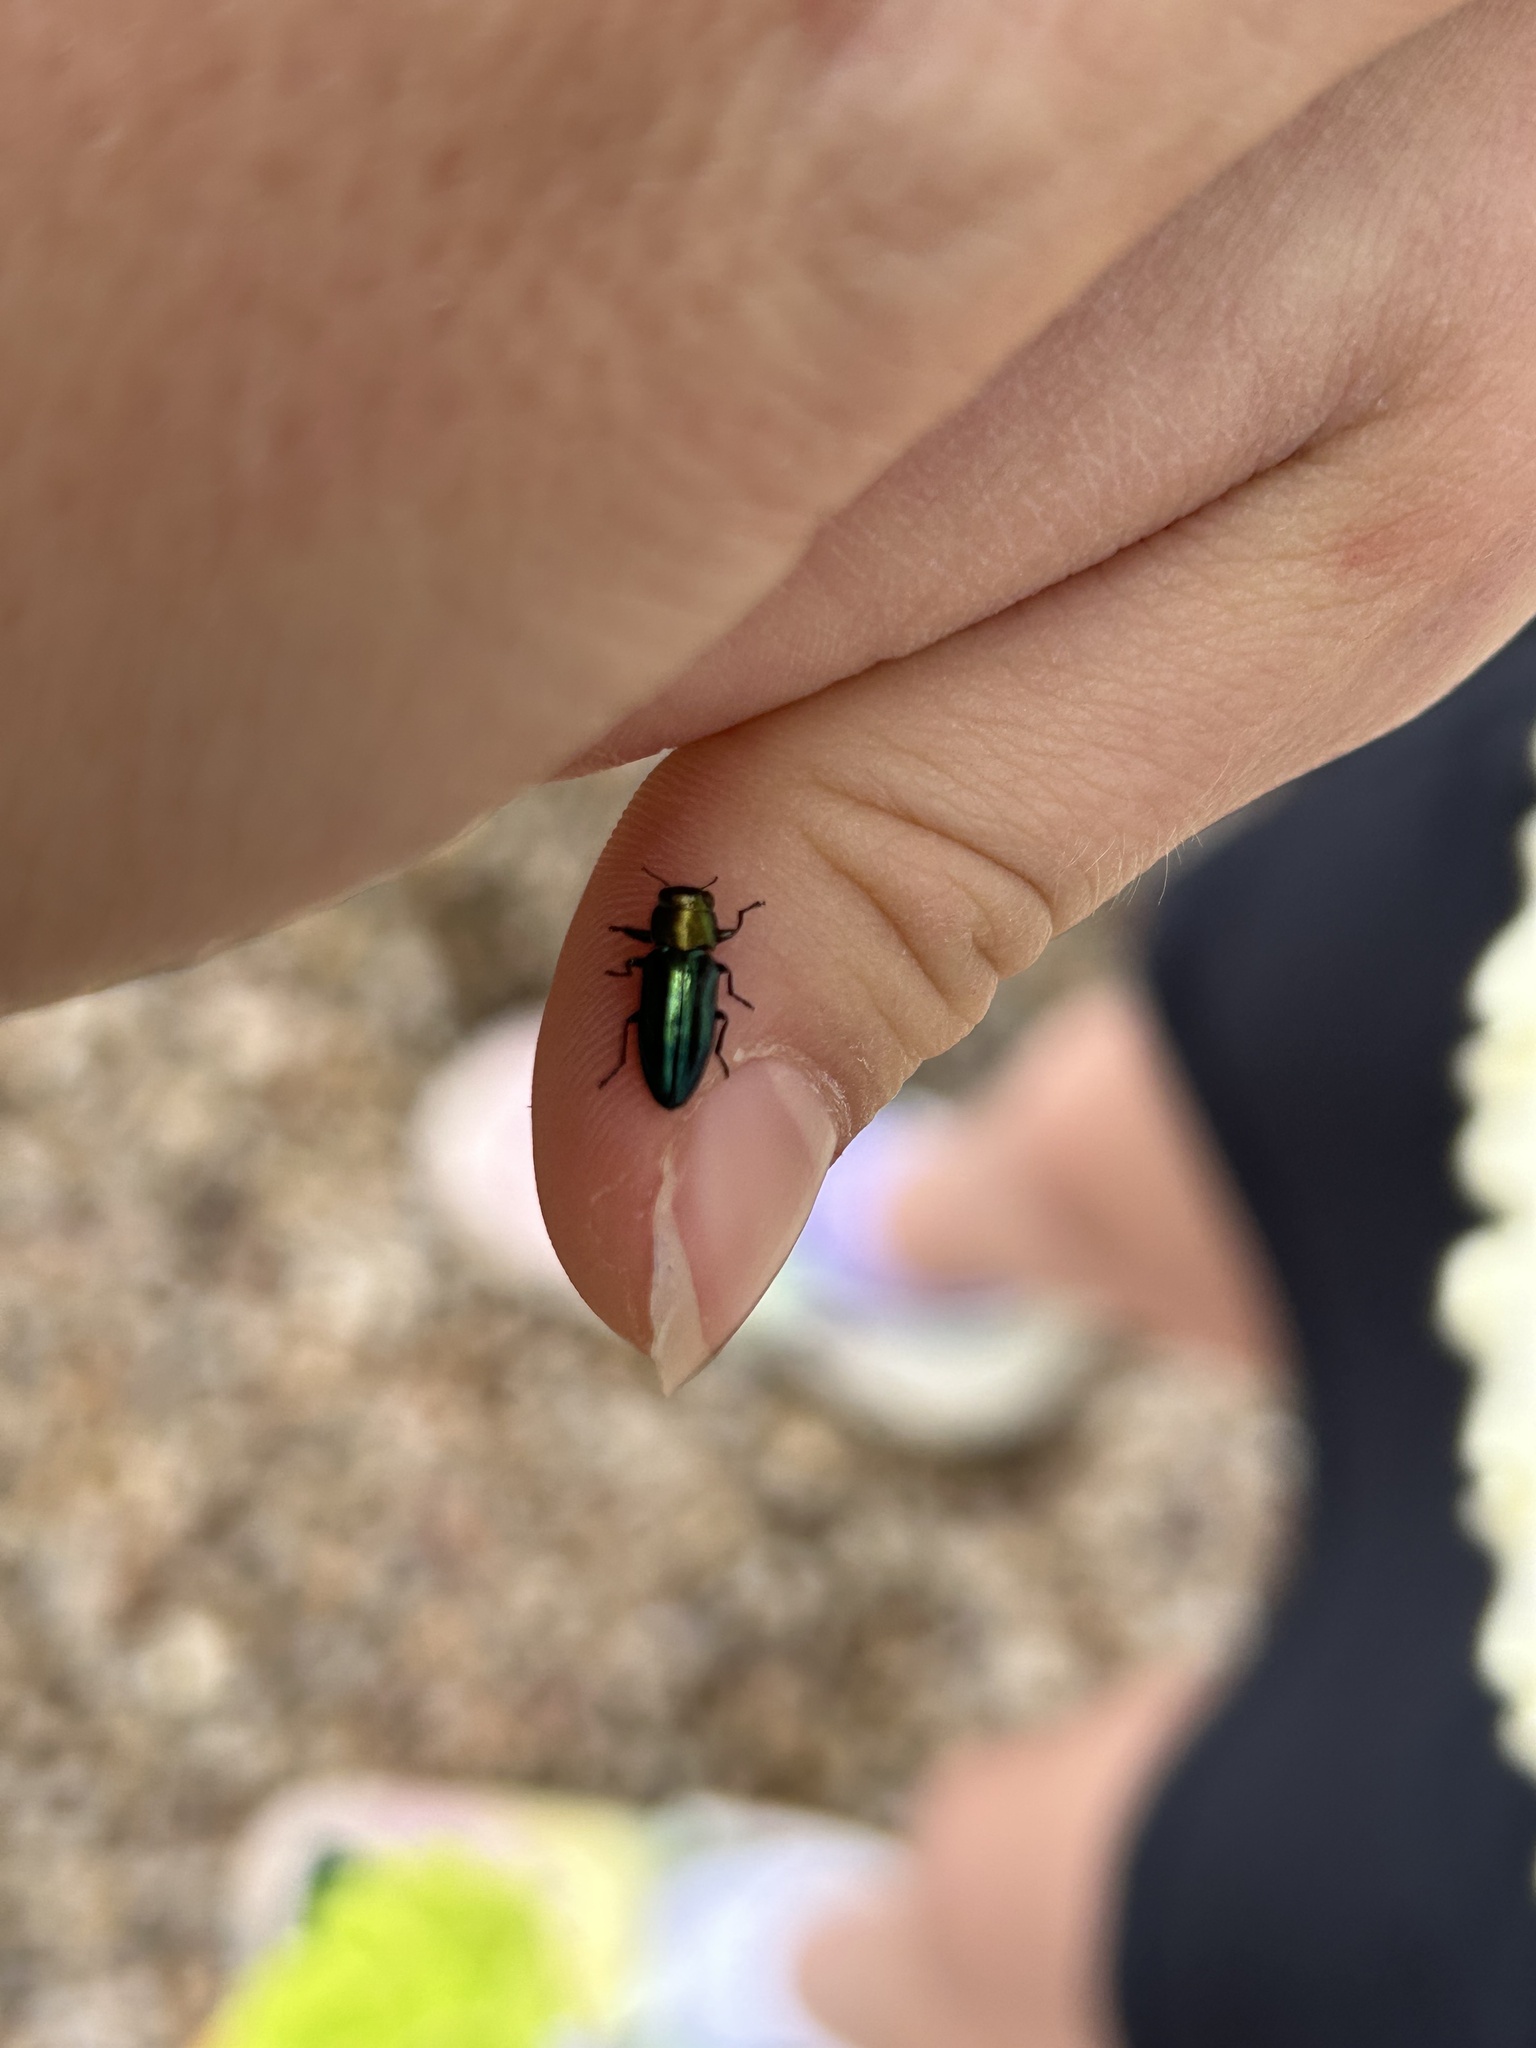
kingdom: Animalia
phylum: Arthropoda
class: Insecta
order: Coleoptera
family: Buprestidae
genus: Chrysobothris
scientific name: Chrysobothris purpureovittata
